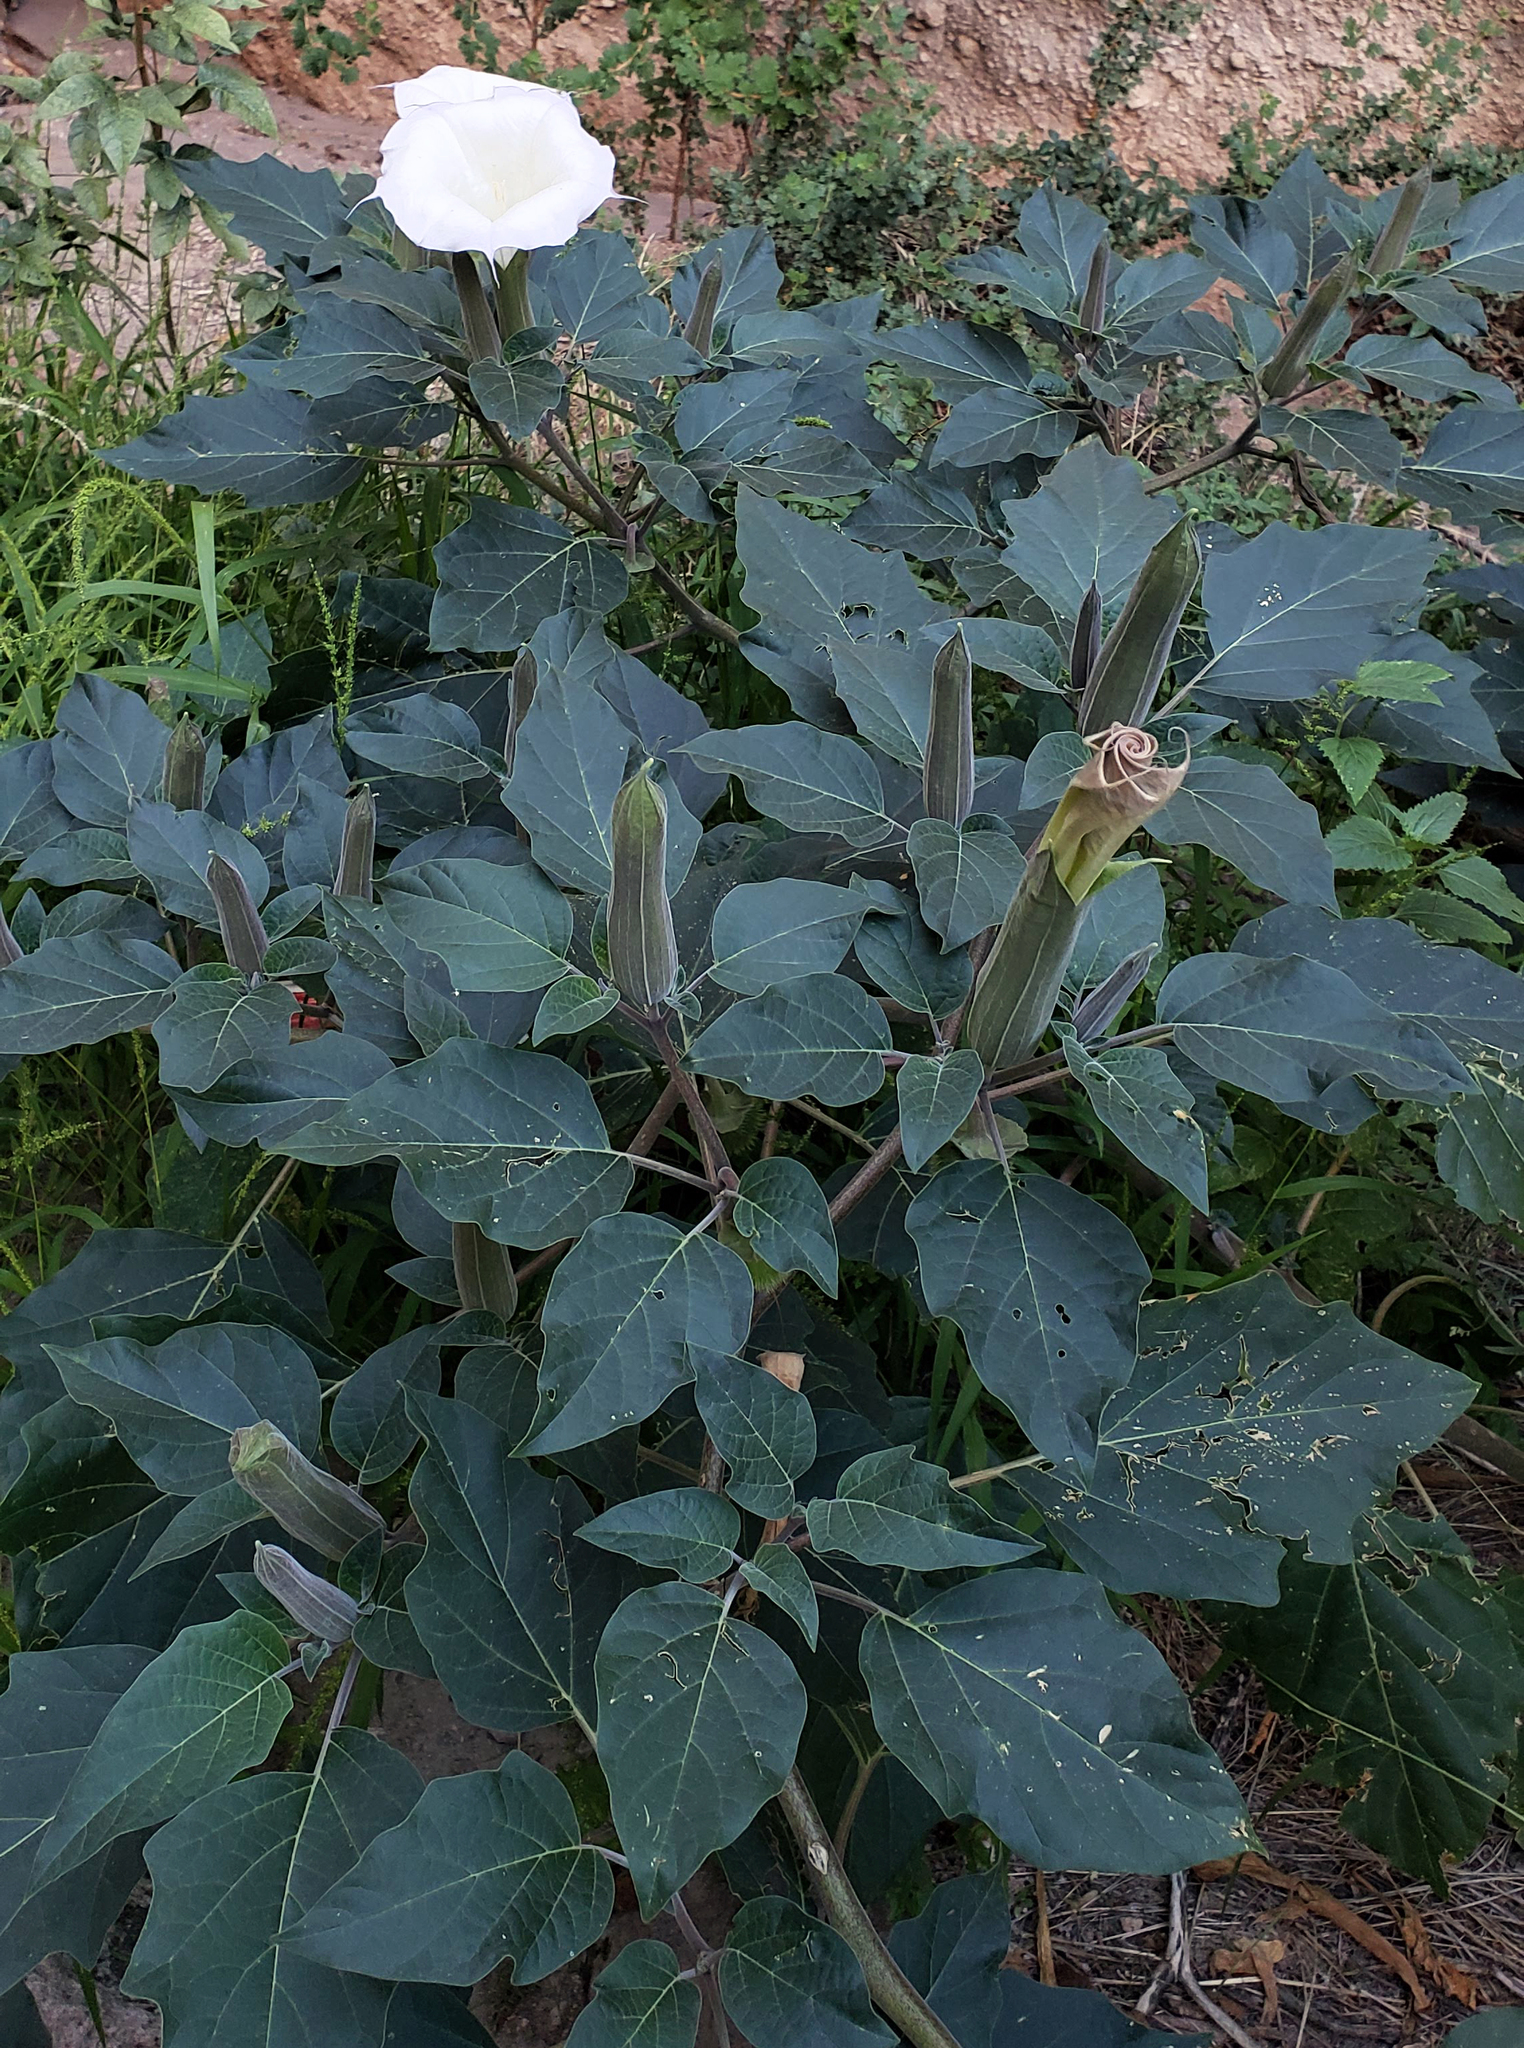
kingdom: Plantae
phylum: Tracheophyta
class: Magnoliopsida
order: Solanales
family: Solanaceae
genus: Datura
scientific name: Datura wrightii
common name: Sacred thorn-apple
